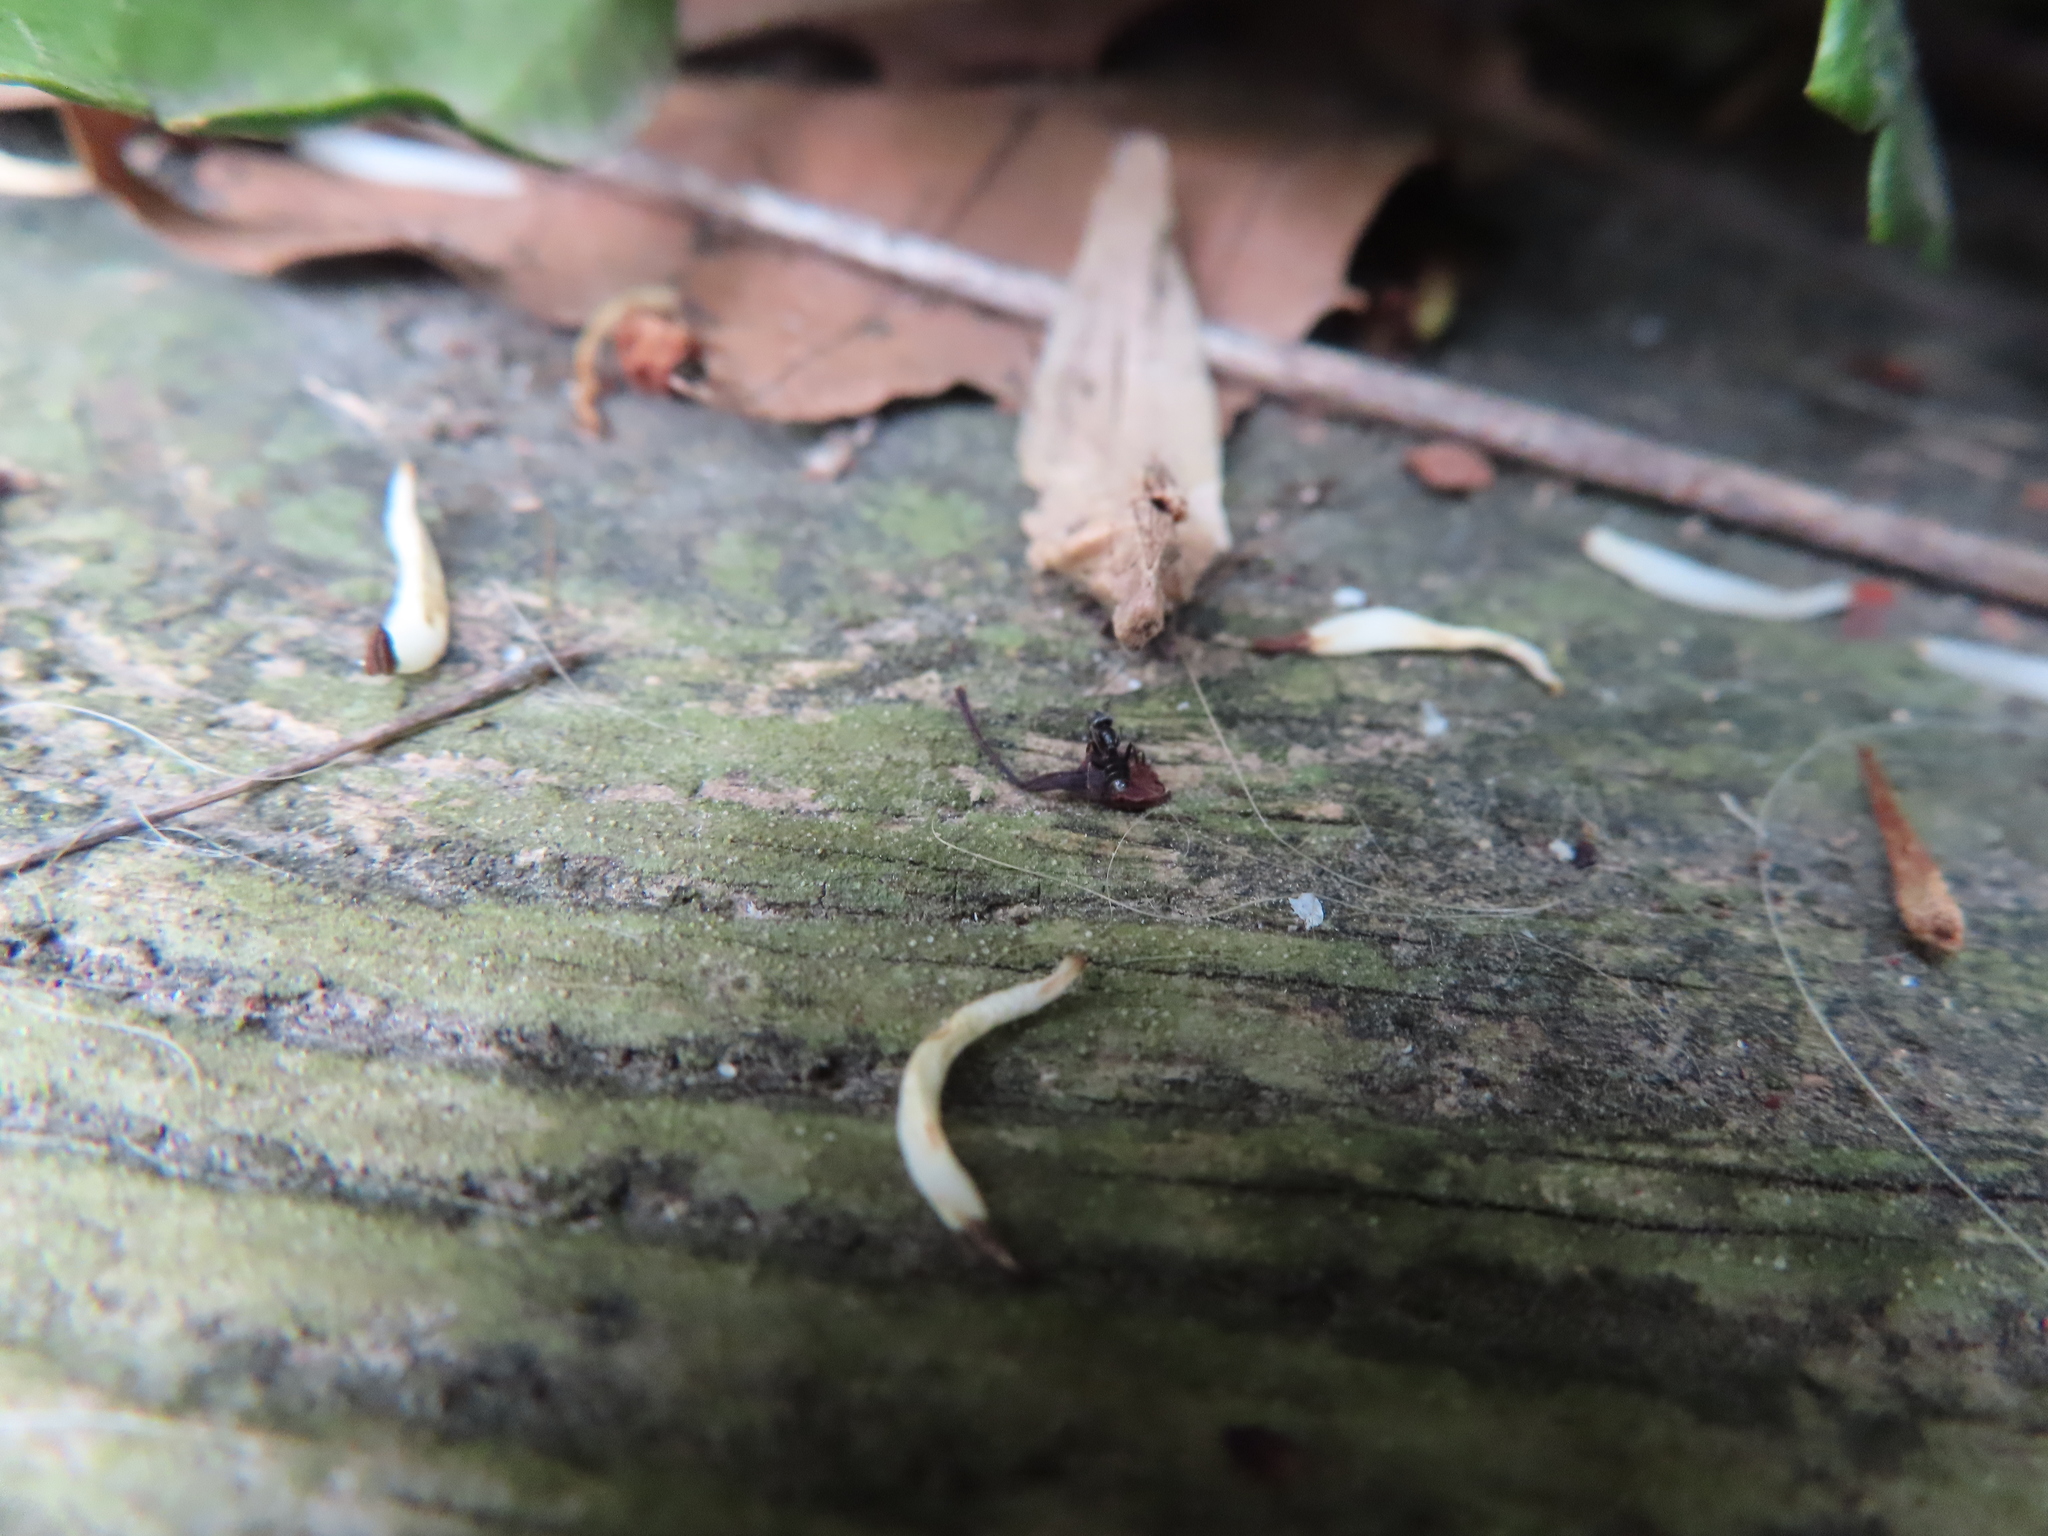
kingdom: Animalia
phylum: Arthropoda
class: Insecta
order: Hymenoptera
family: Formicidae
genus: Tapinoma
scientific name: Tapinoma sessile
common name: Odorous house ant
